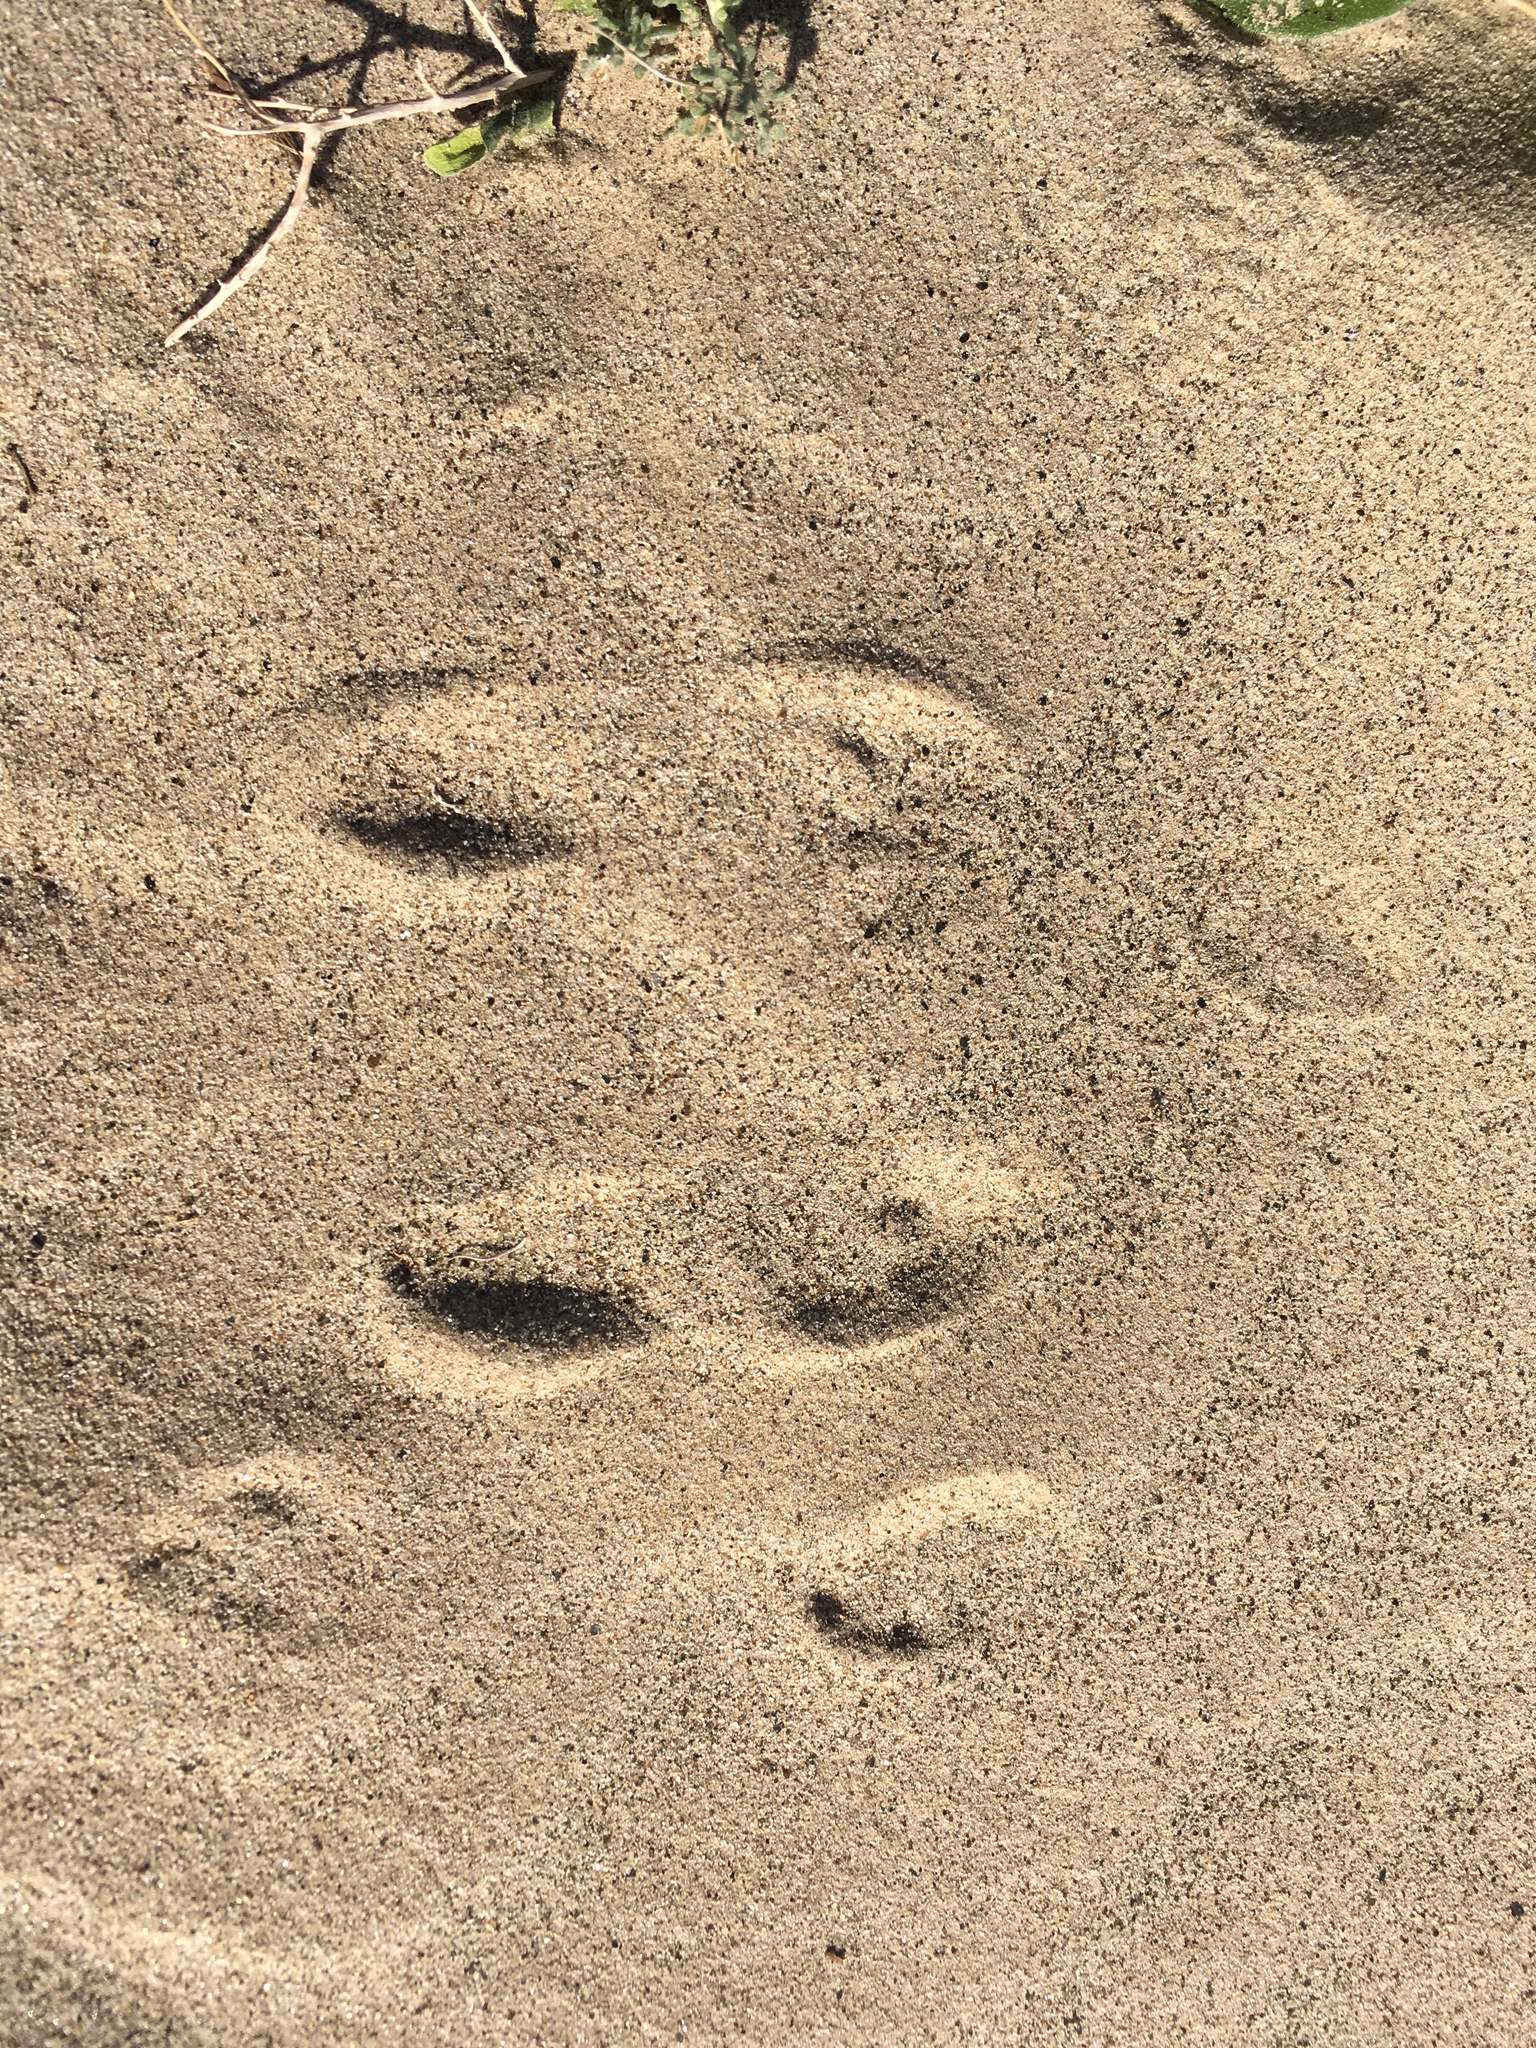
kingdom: Animalia
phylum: Chordata
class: Mammalia
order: Lagomorpha
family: Leporidae
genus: Sylvilagus
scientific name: Sylvilagus audubonii
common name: Desert cottontail
